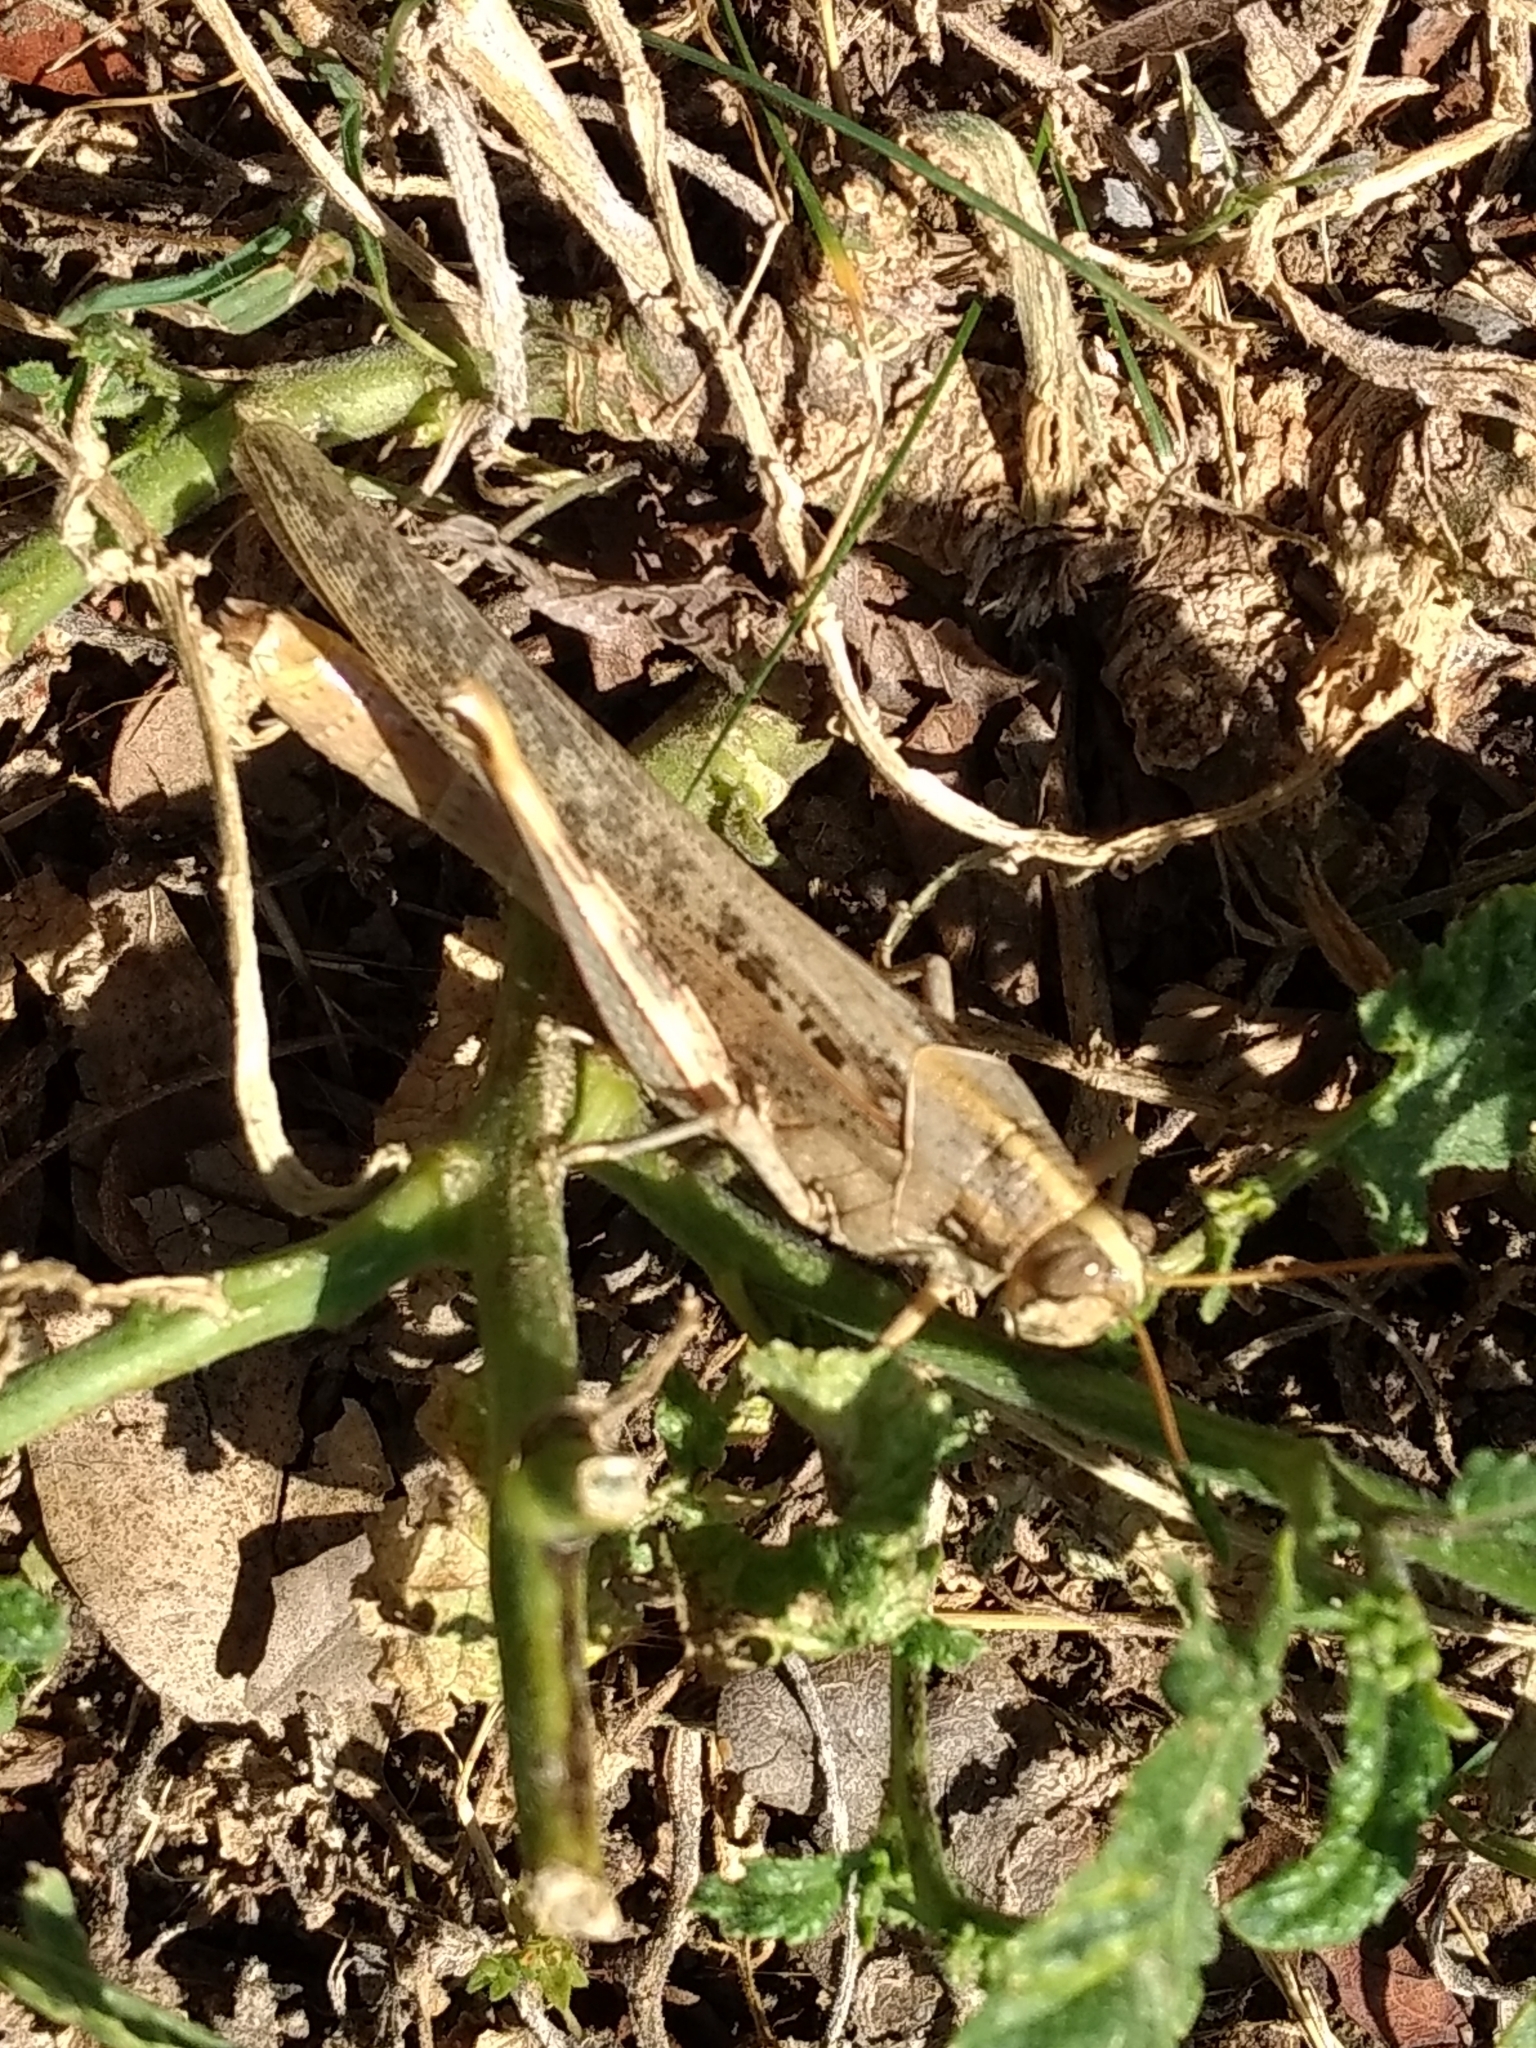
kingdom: Animalia
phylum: Arthropoda
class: Insecta
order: Orthoptera
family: Acrididae
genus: Schistocerca
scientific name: Schistocerca nitens
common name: Vagrant grasshopper
